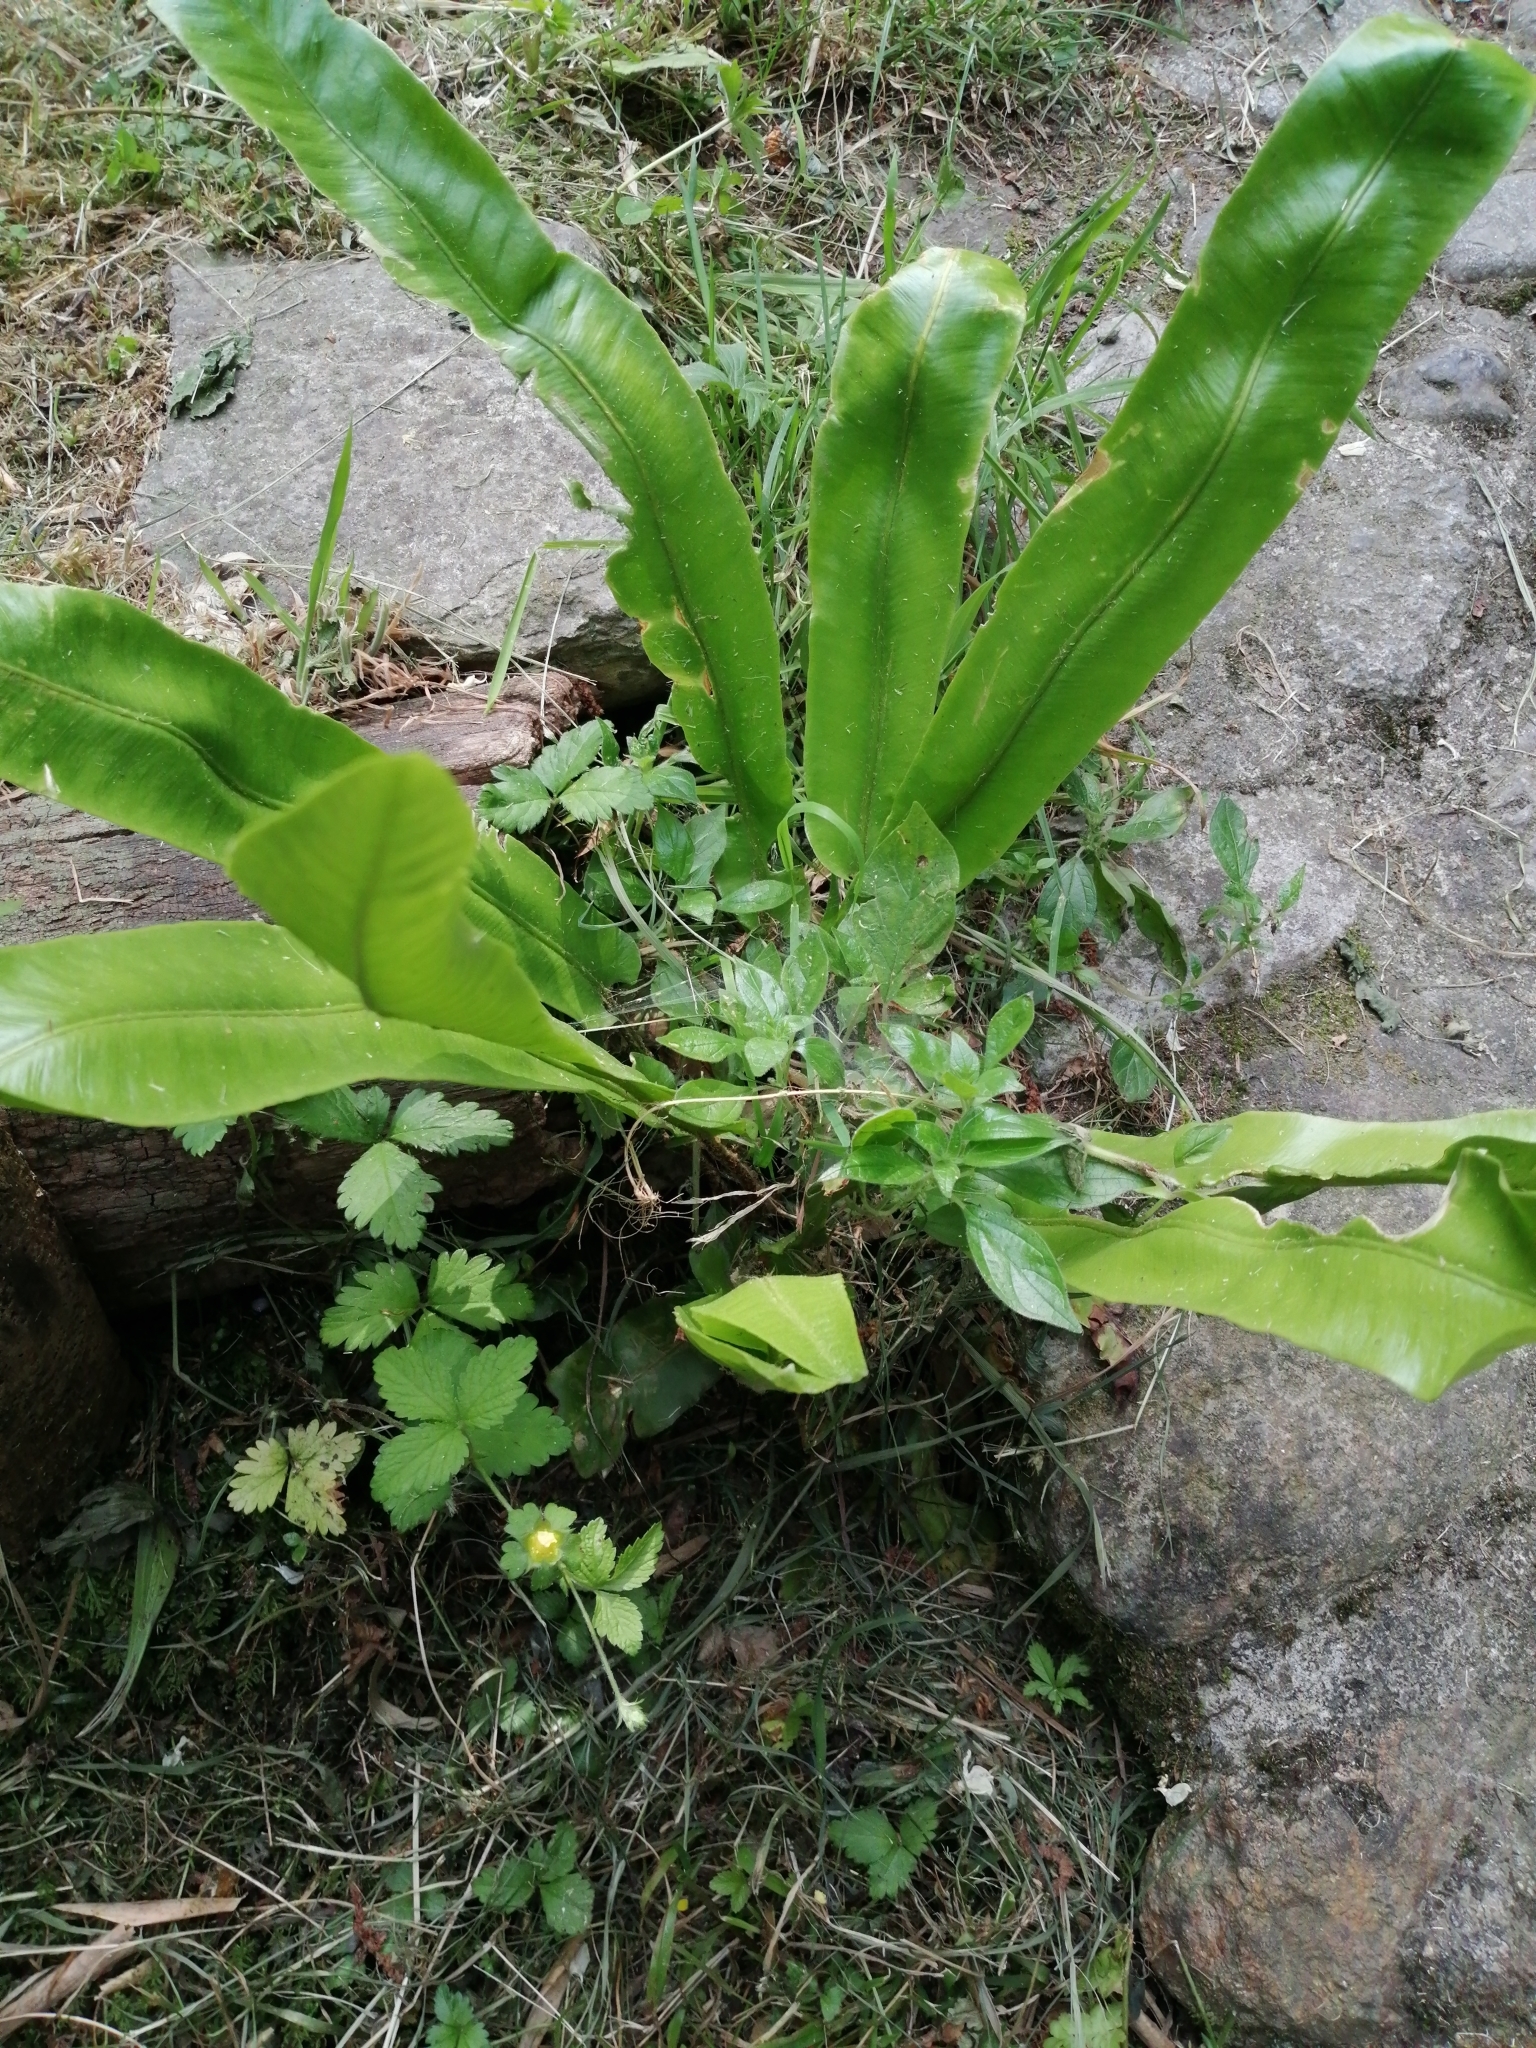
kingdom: Plantae
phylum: Tracheophyta
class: Polypodiopsida
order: Polypodiales
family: Aspleniaceae
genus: Asplenium
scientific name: Asplenium scolopendrium
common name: Hart's-tongue fern
